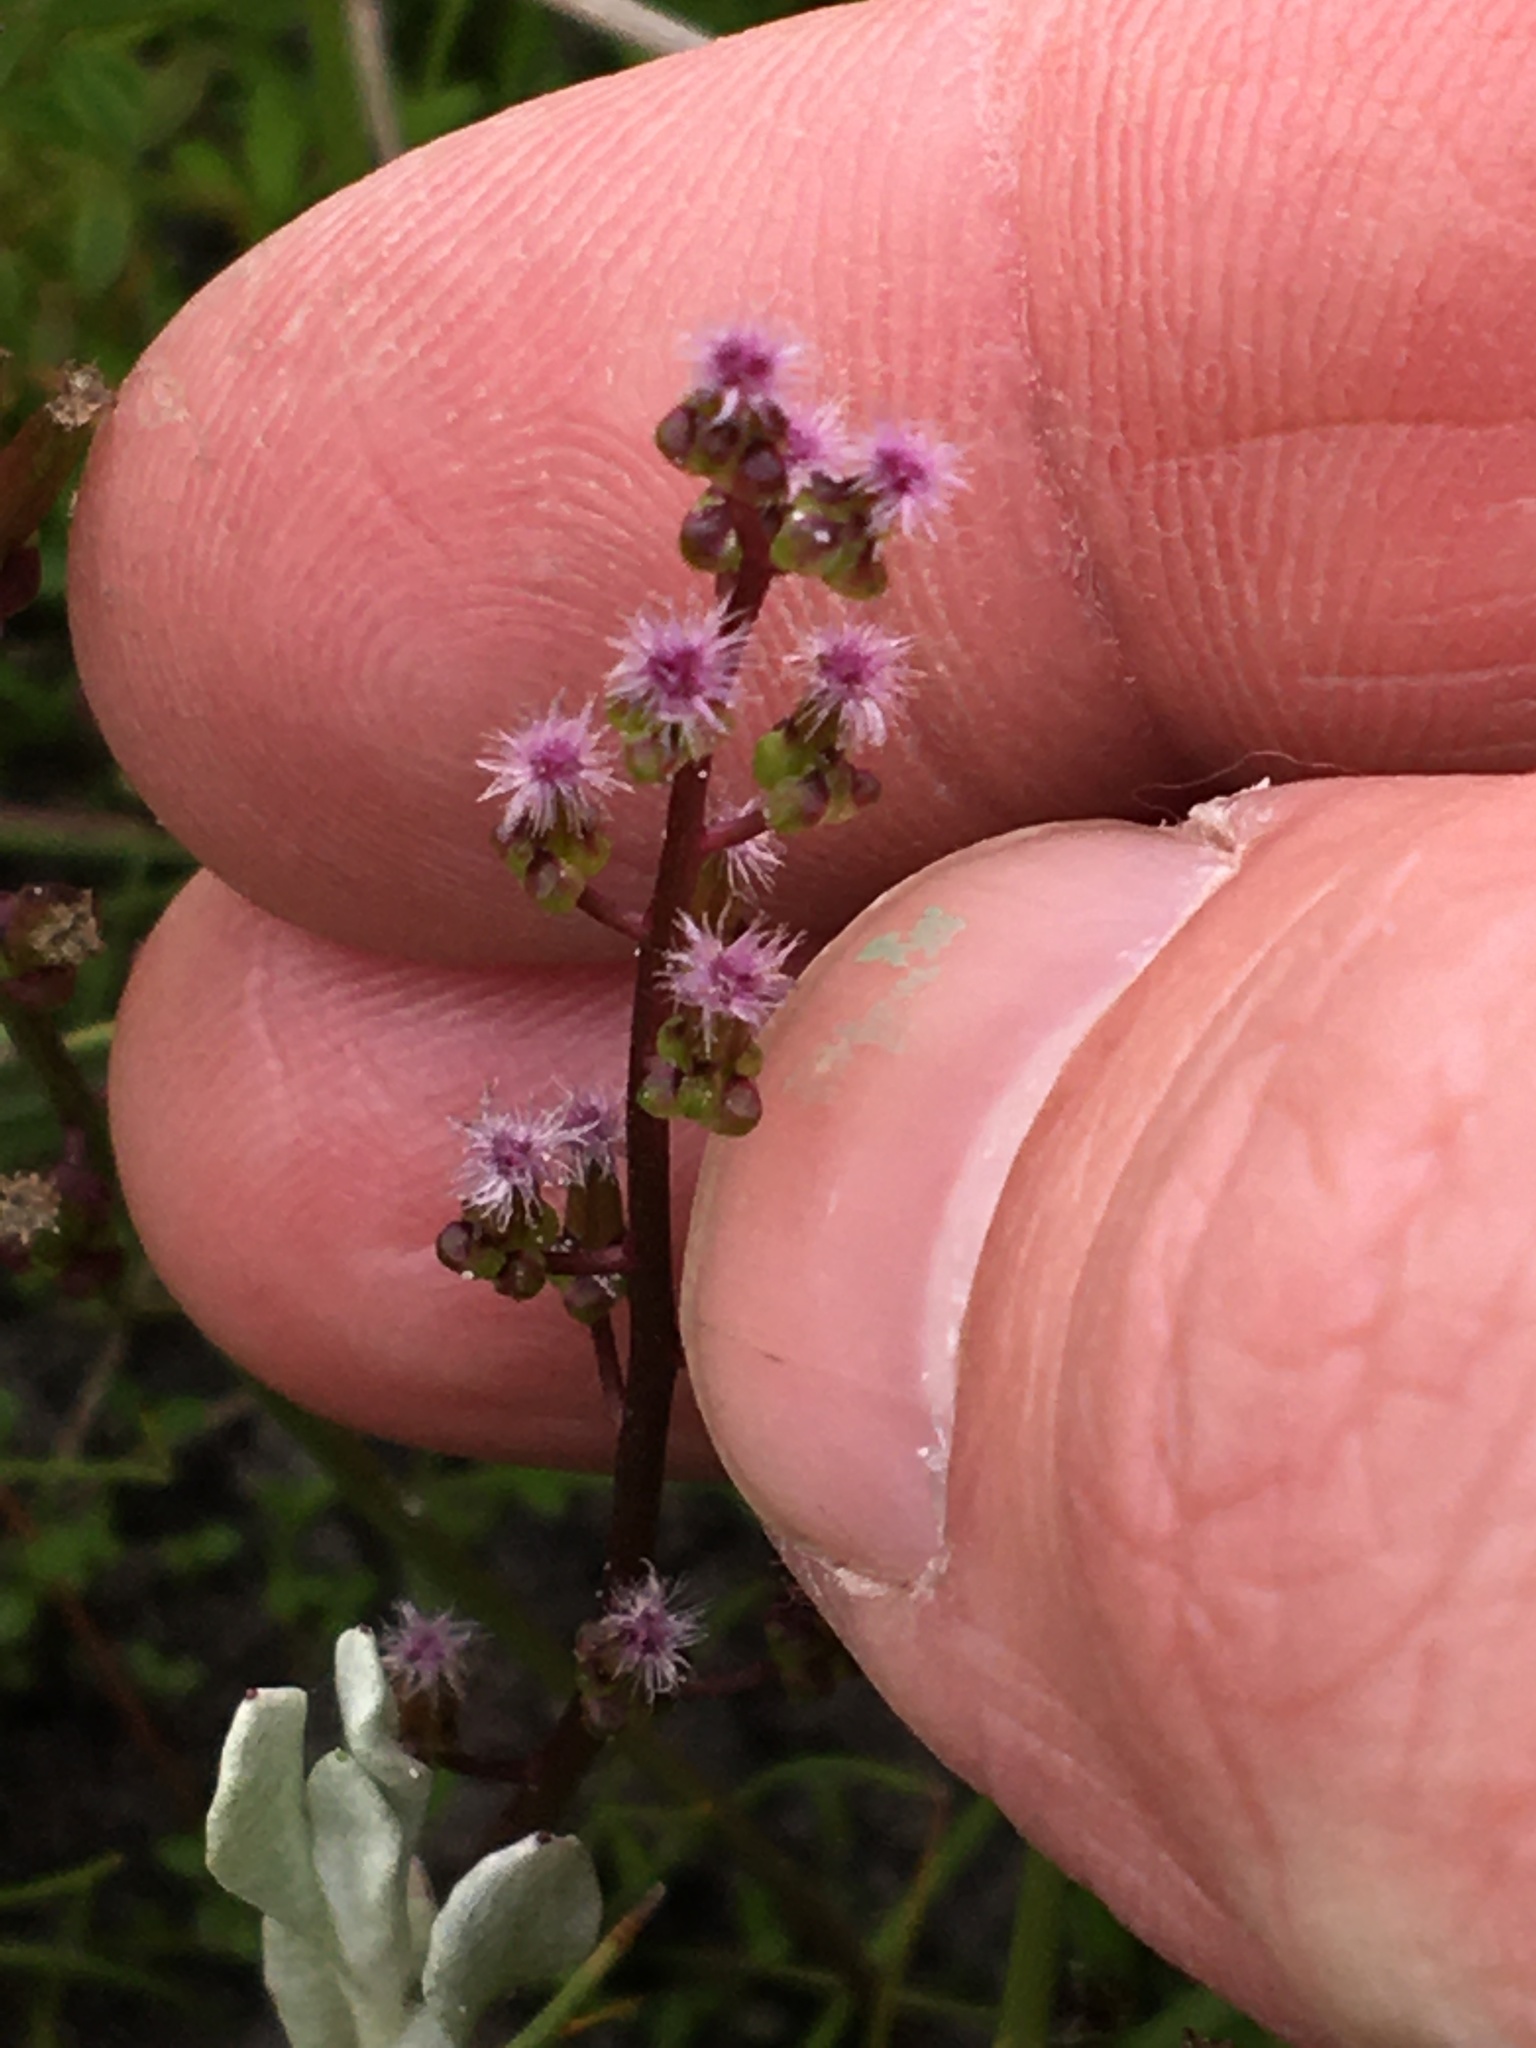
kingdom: Plantae
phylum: Tracheophyta
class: Liliopsida
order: Alismatales
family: Juncaginaceae
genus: Triglochin
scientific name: Triglochin bulbosa
